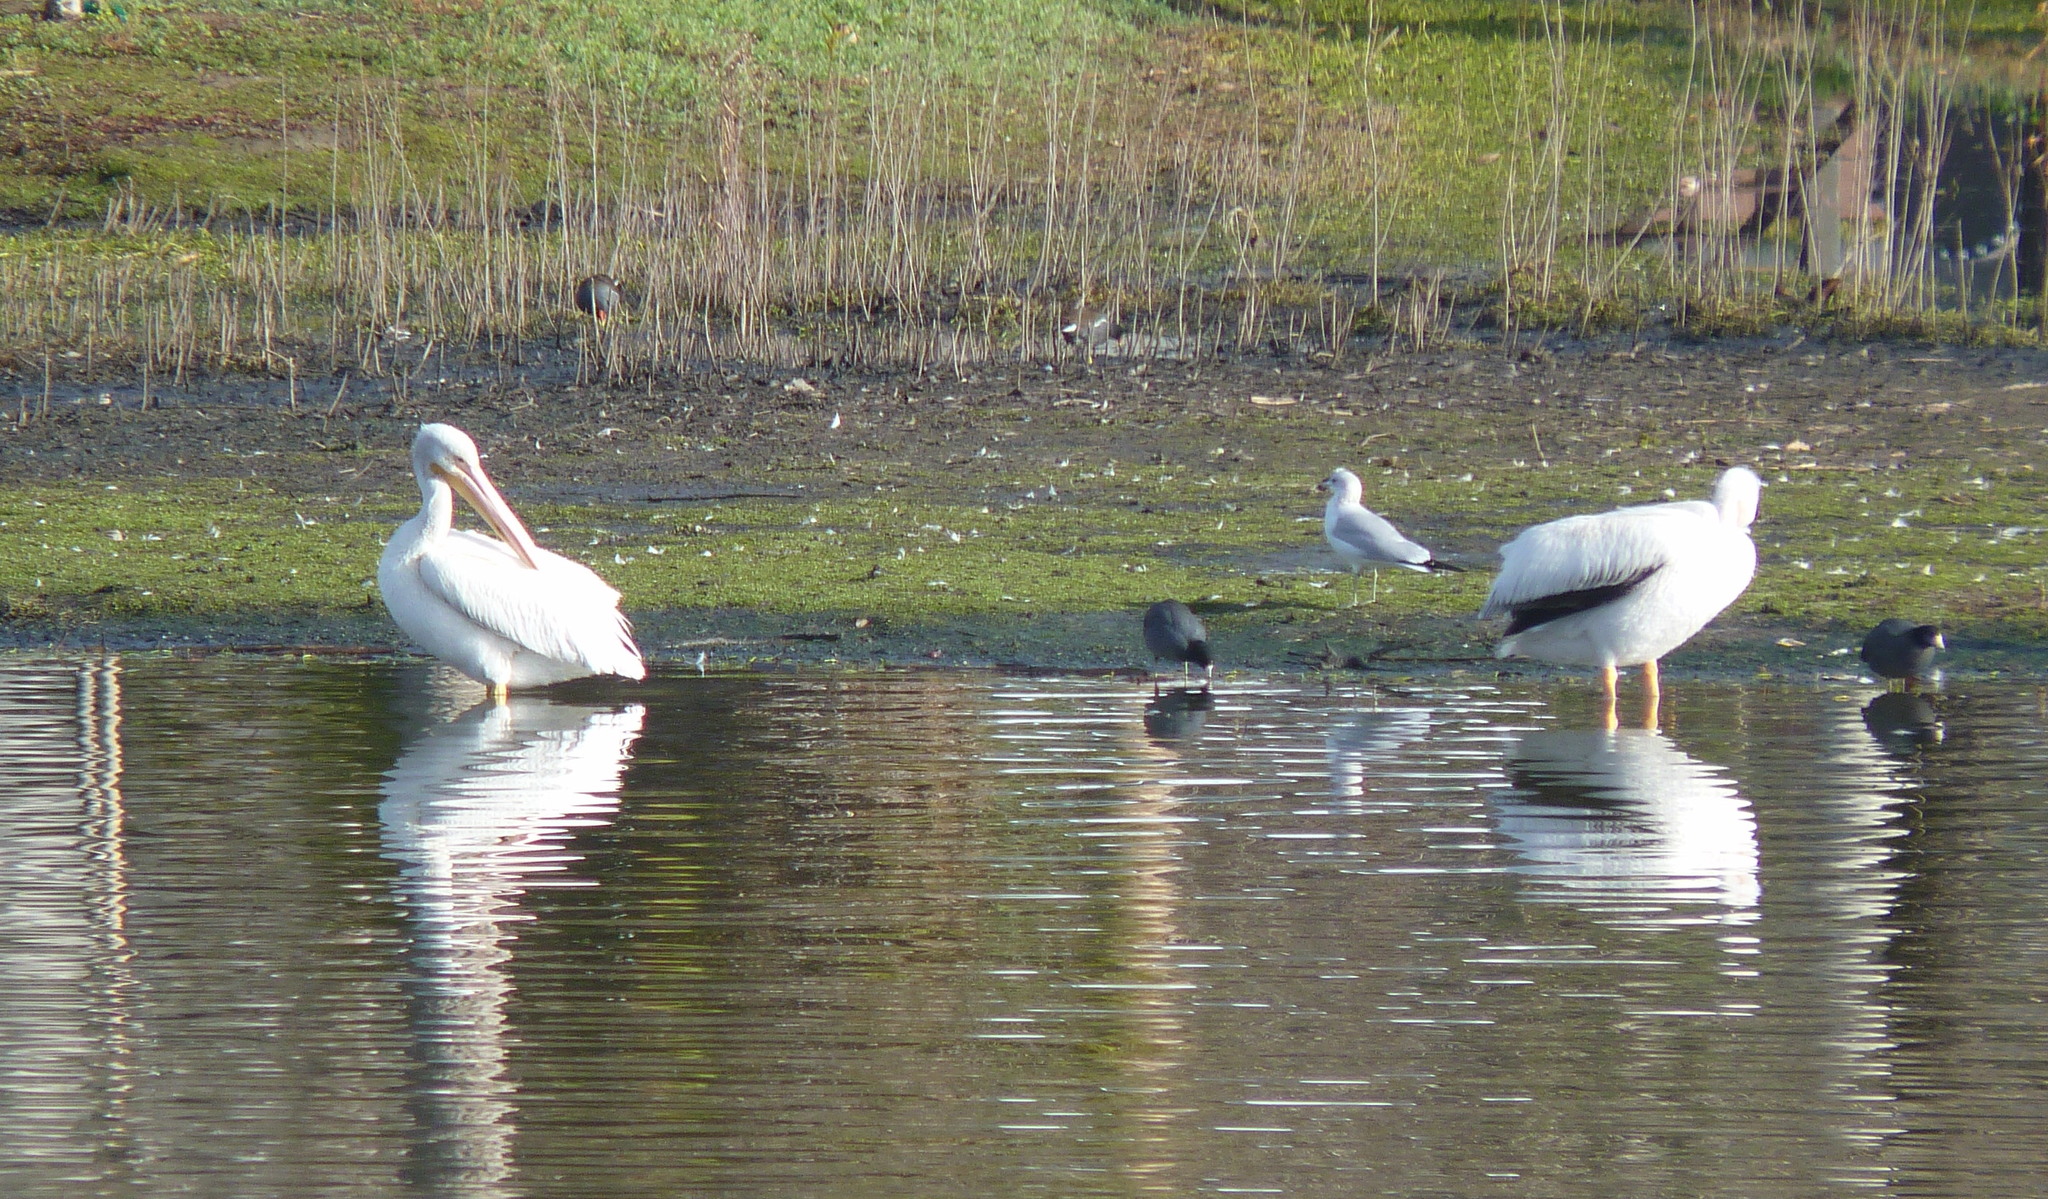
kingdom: Animalia
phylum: Chordata
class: Aves
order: Pelecaniformes
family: Pelecanidae
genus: Pelecanus
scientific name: Pelecanus erythrorhynchos
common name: American white pelican
